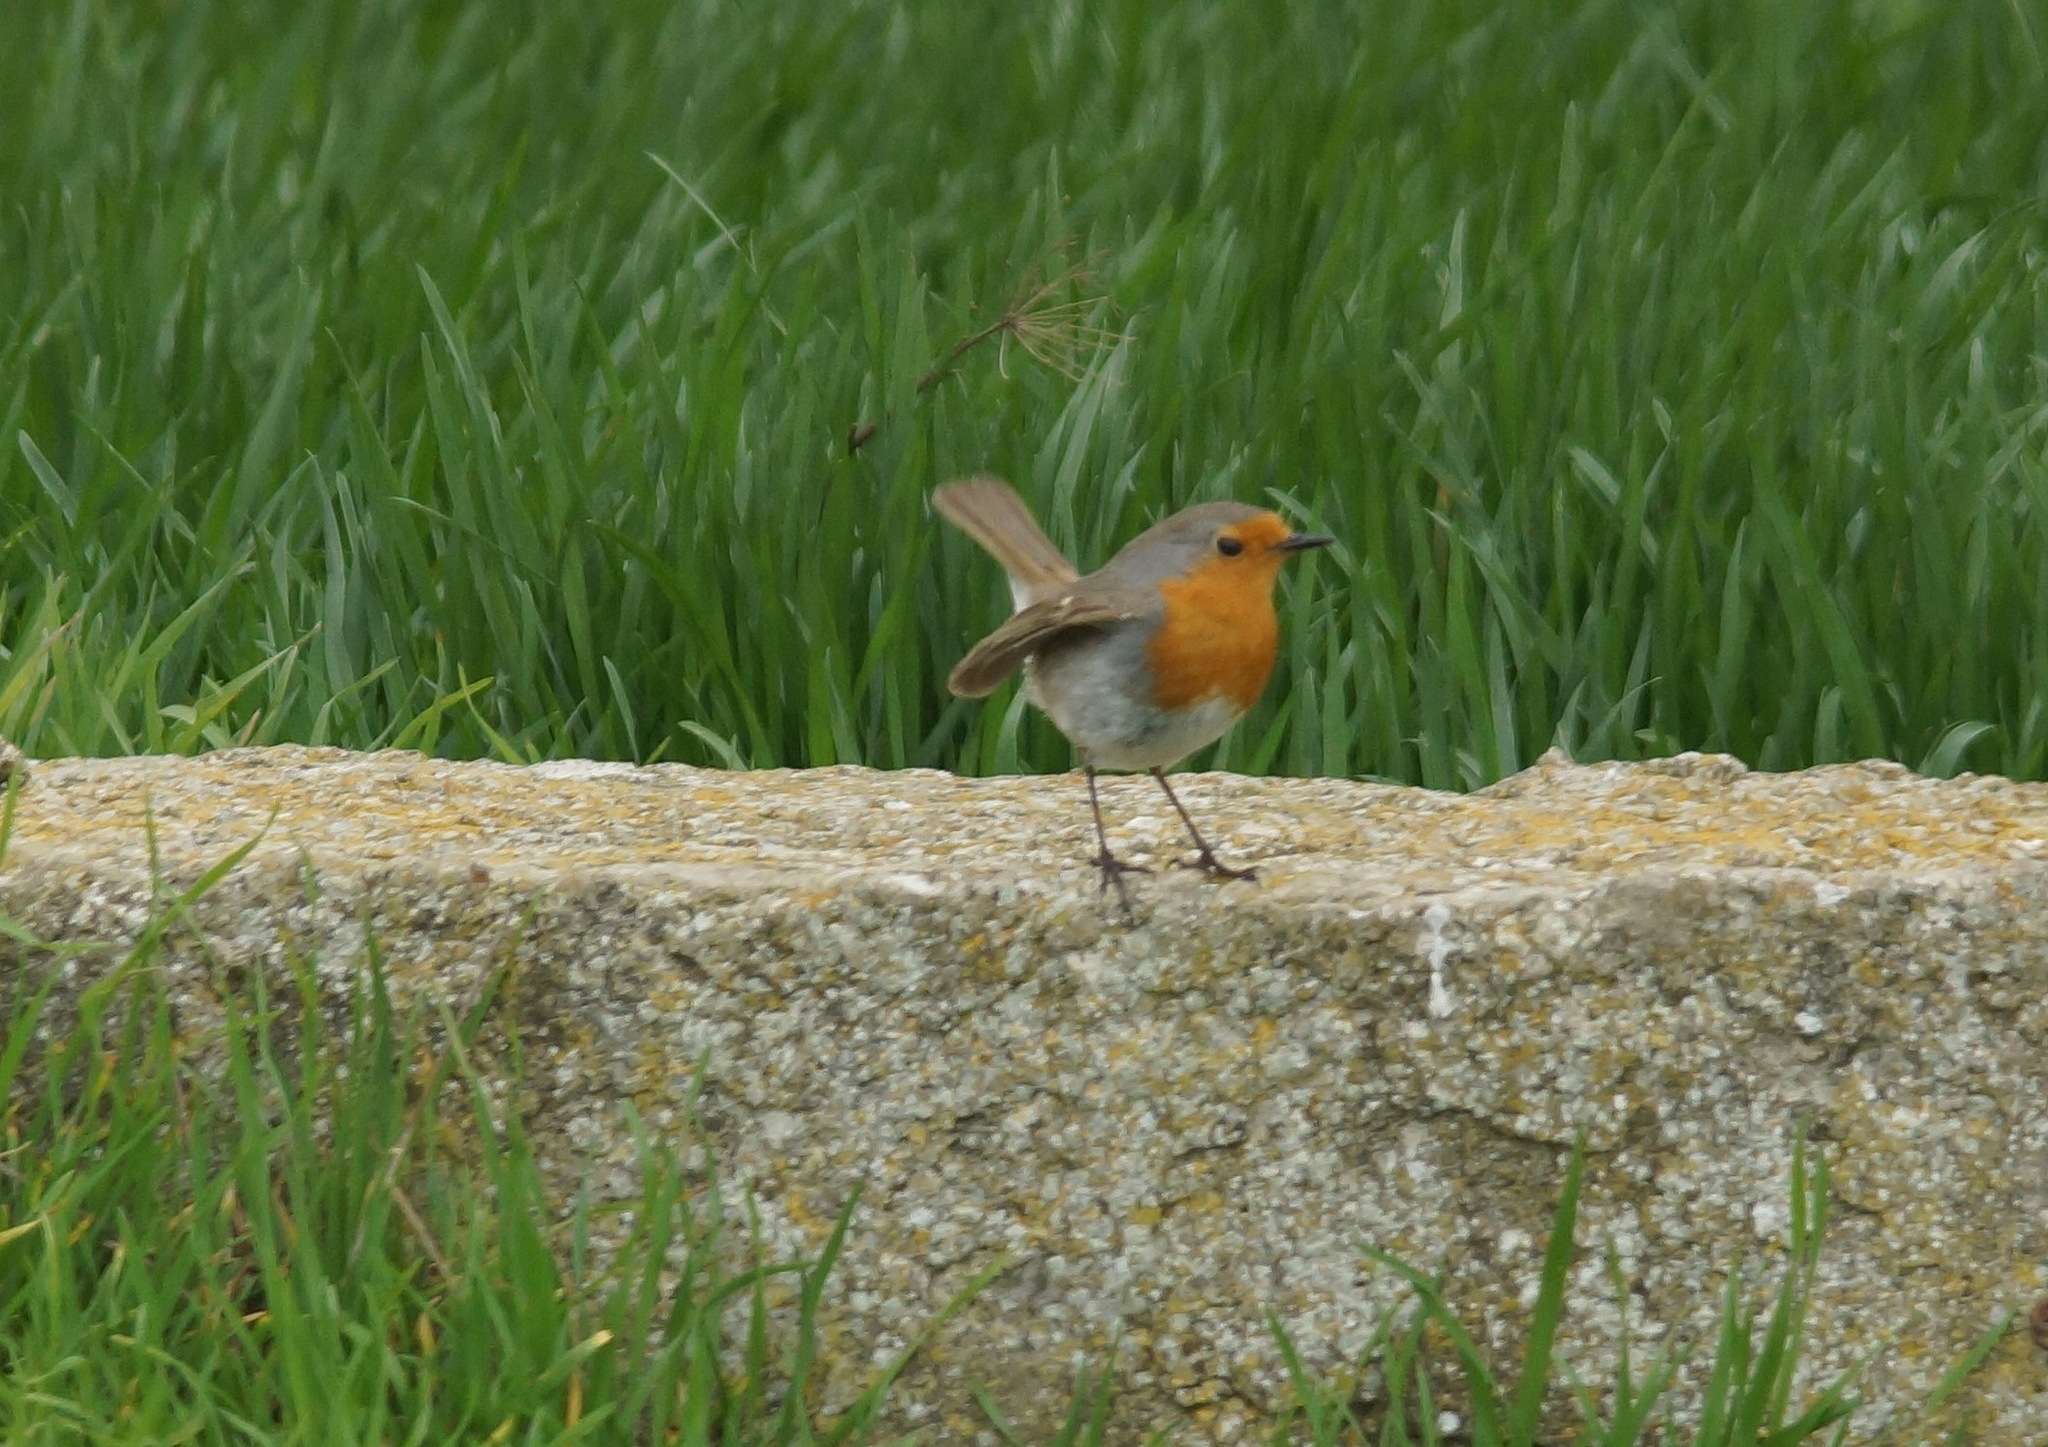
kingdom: Animalia
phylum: Chordata
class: Aves
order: Passeriformes
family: Muscicapidae
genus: Erithacus
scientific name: Erithacus rubecula
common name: European robin
